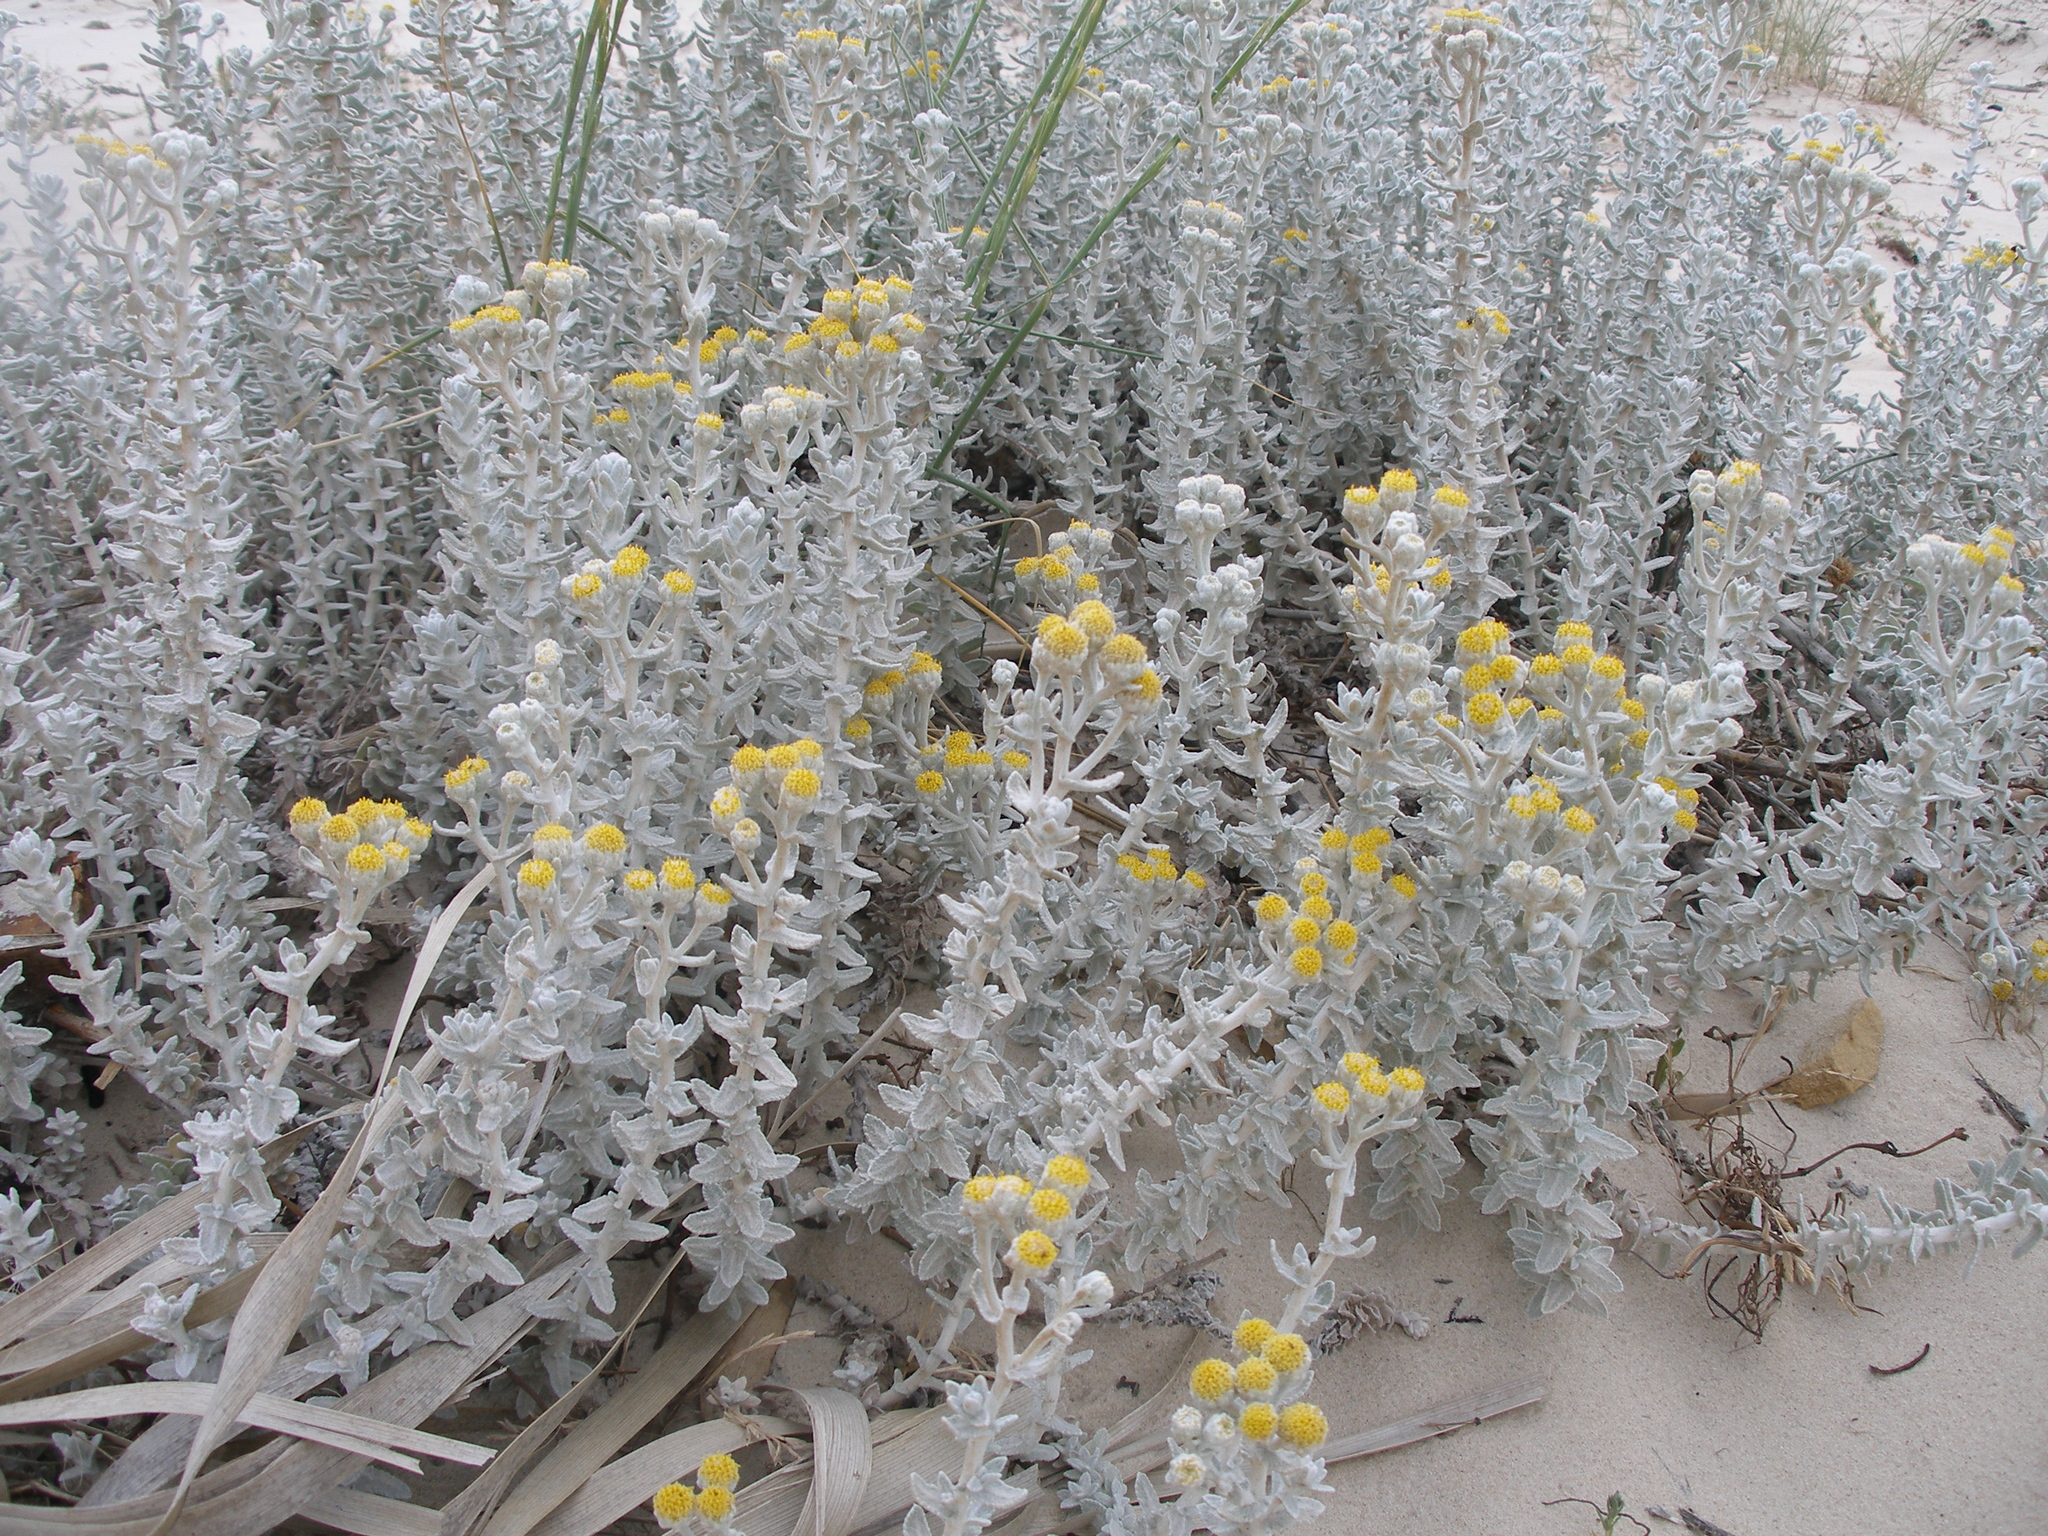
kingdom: Plantae
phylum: Tracheophyta
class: Magnoliopsida
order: Asterales
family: Asteraceae
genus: Achillea
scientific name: Achillea maritima
